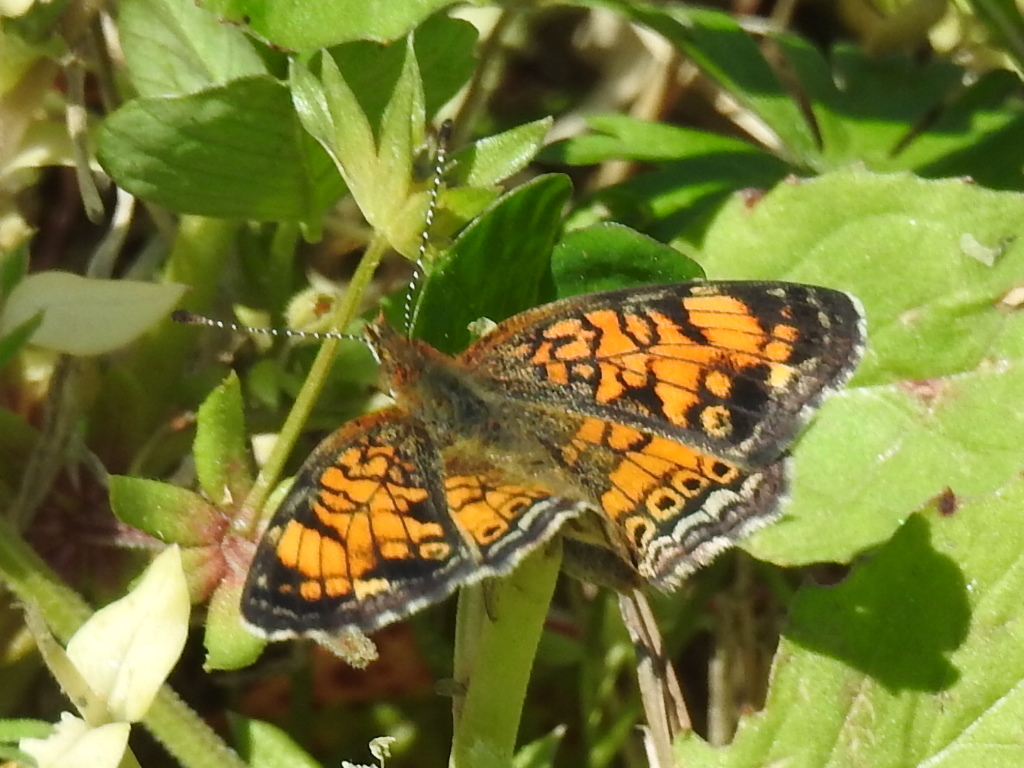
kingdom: Animalia
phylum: Arthropoda
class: Insecta
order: Lepidoptera
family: Nymphalidae
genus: Phyciodes
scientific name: Phyciodes tharos
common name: Pearl crescent
